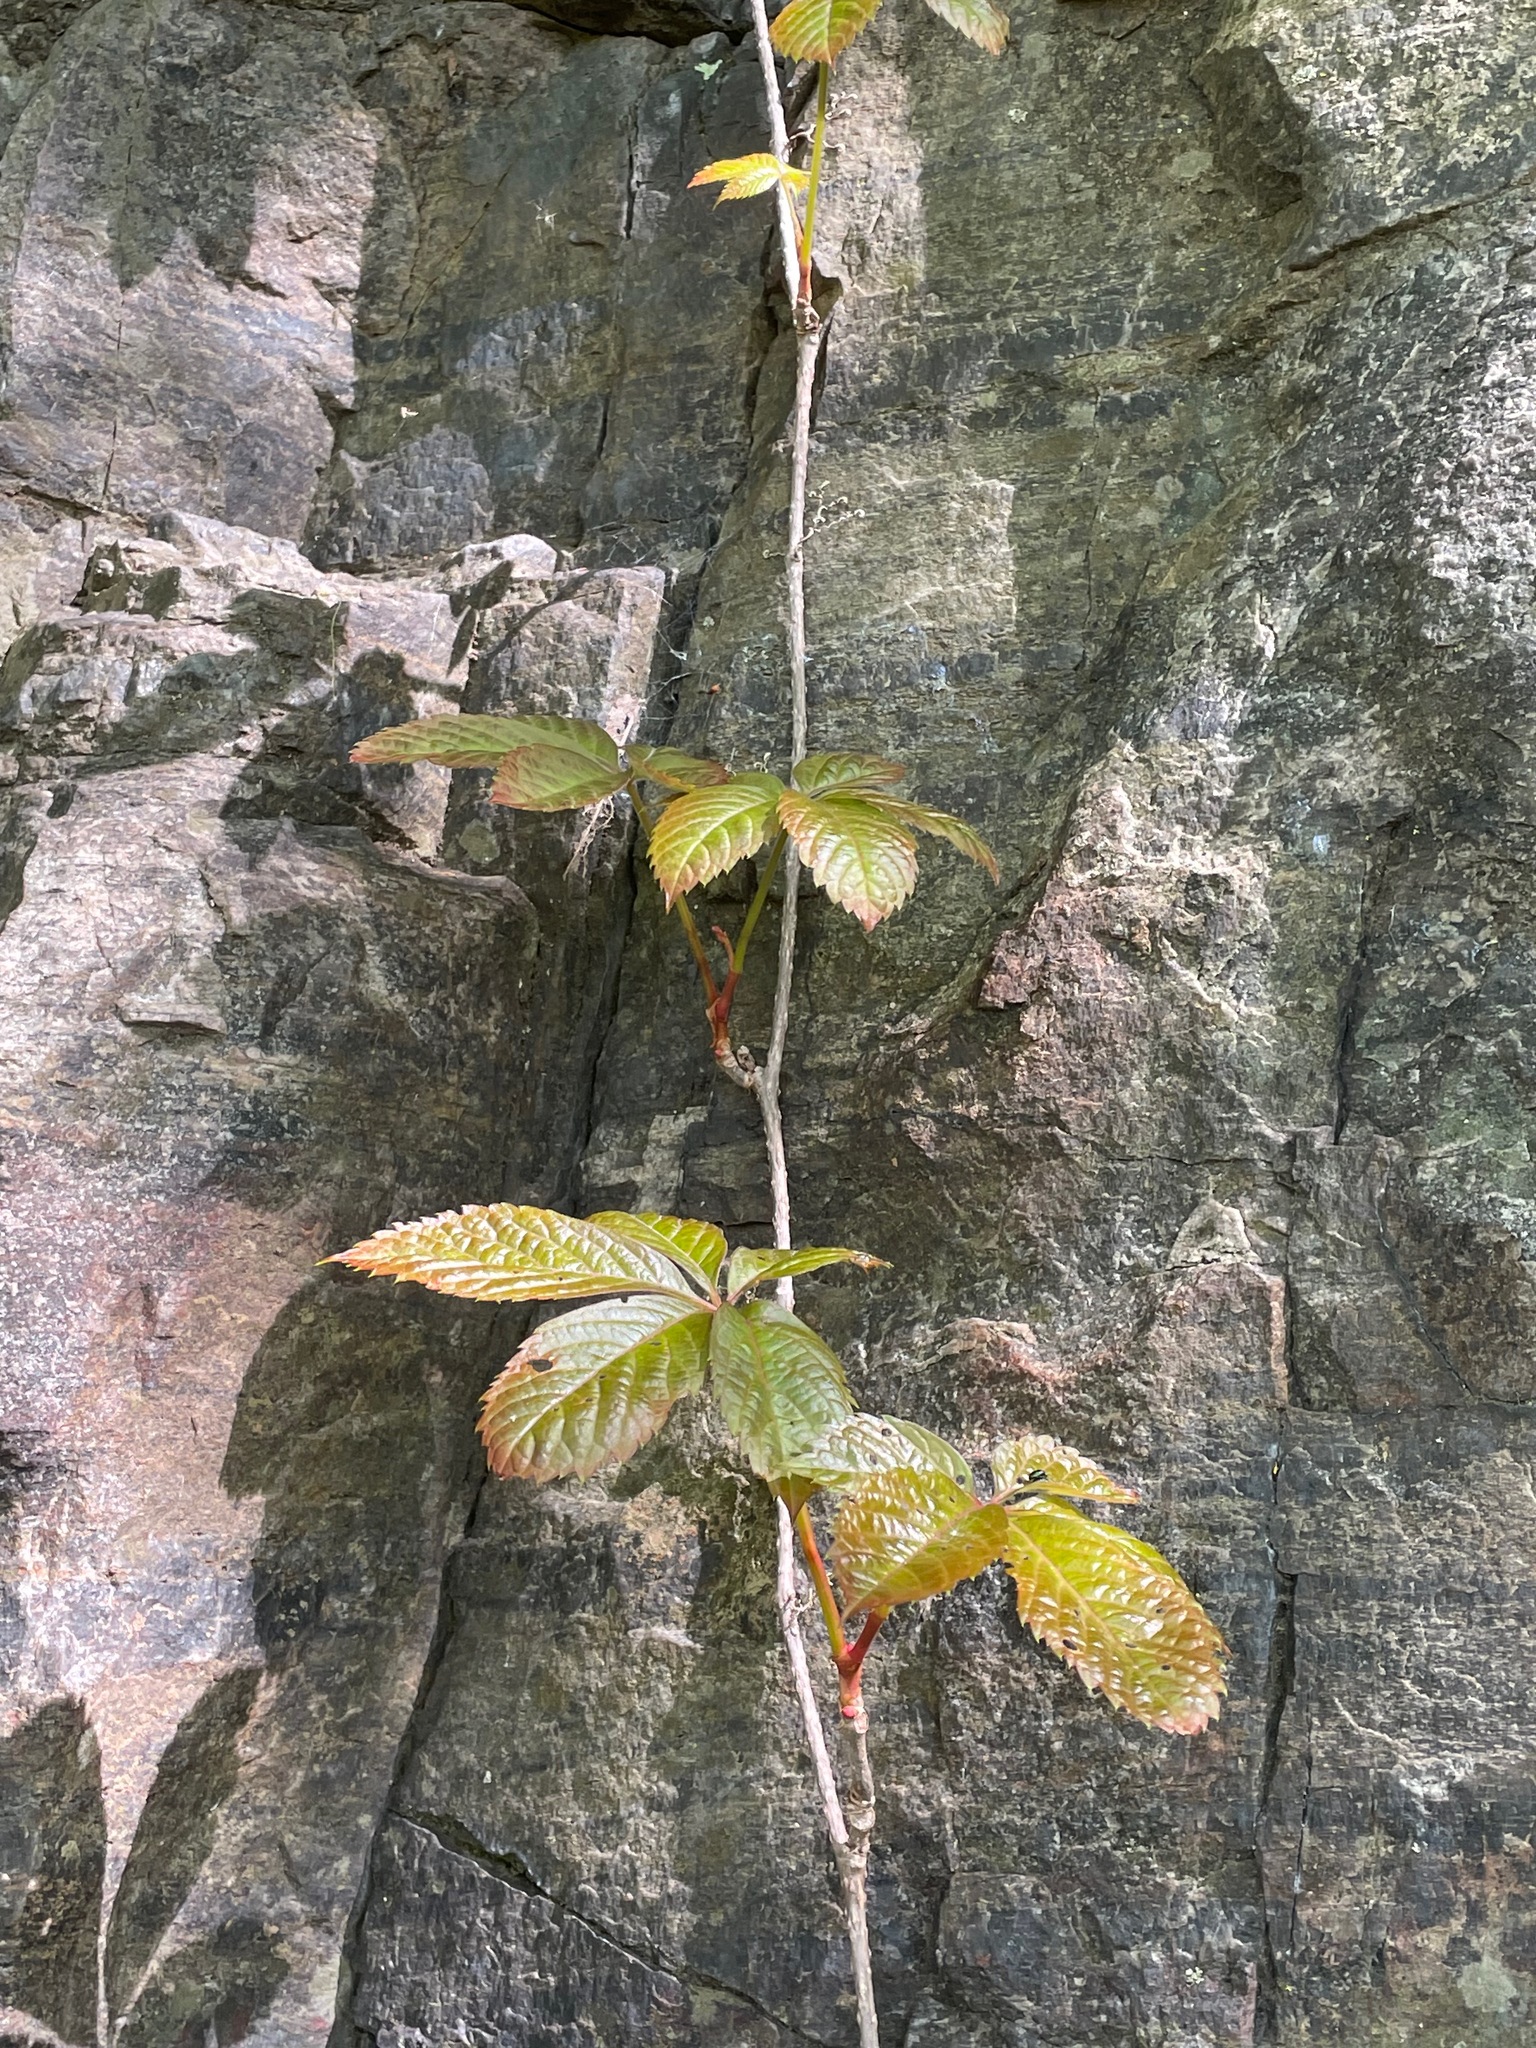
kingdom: Plantae
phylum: Tracheophyta
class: Magnoliopsida
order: Vitales
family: Vitaceae
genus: Parthenocissus
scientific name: Parthenocissus quinquefolia
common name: Virginia-creeper
